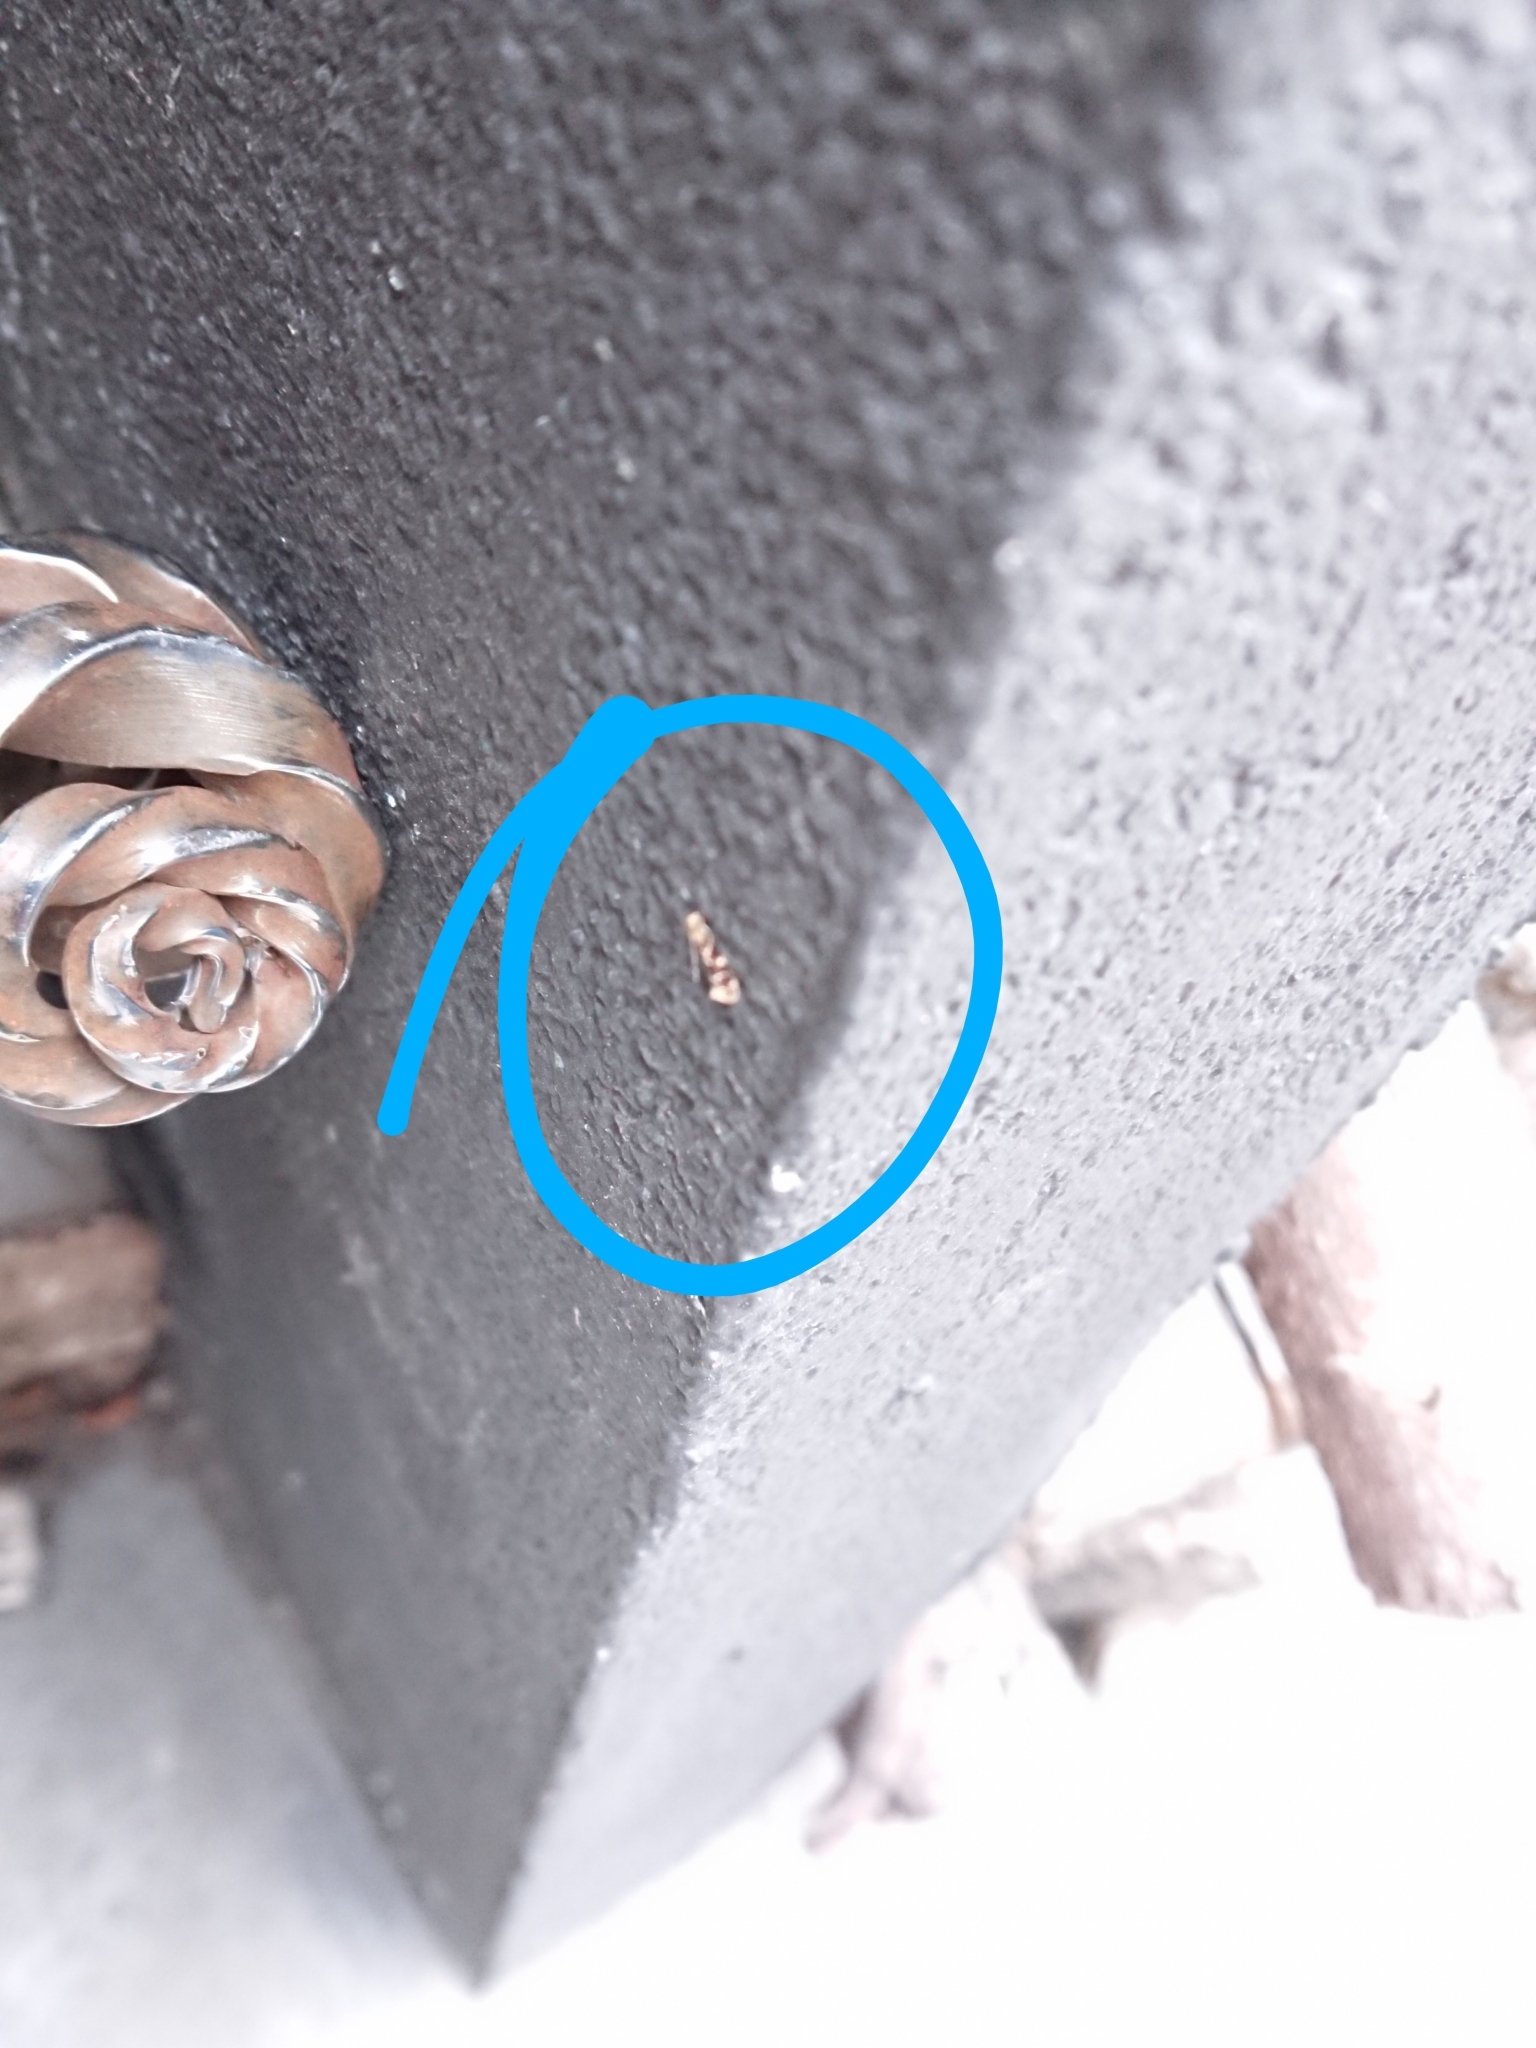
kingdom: Animalia
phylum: Arthropoda
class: Insecta
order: Lepidoptera
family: Dryadaulidae
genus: Dryadaula
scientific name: Dryadaula pactolia
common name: Cellar clothes
